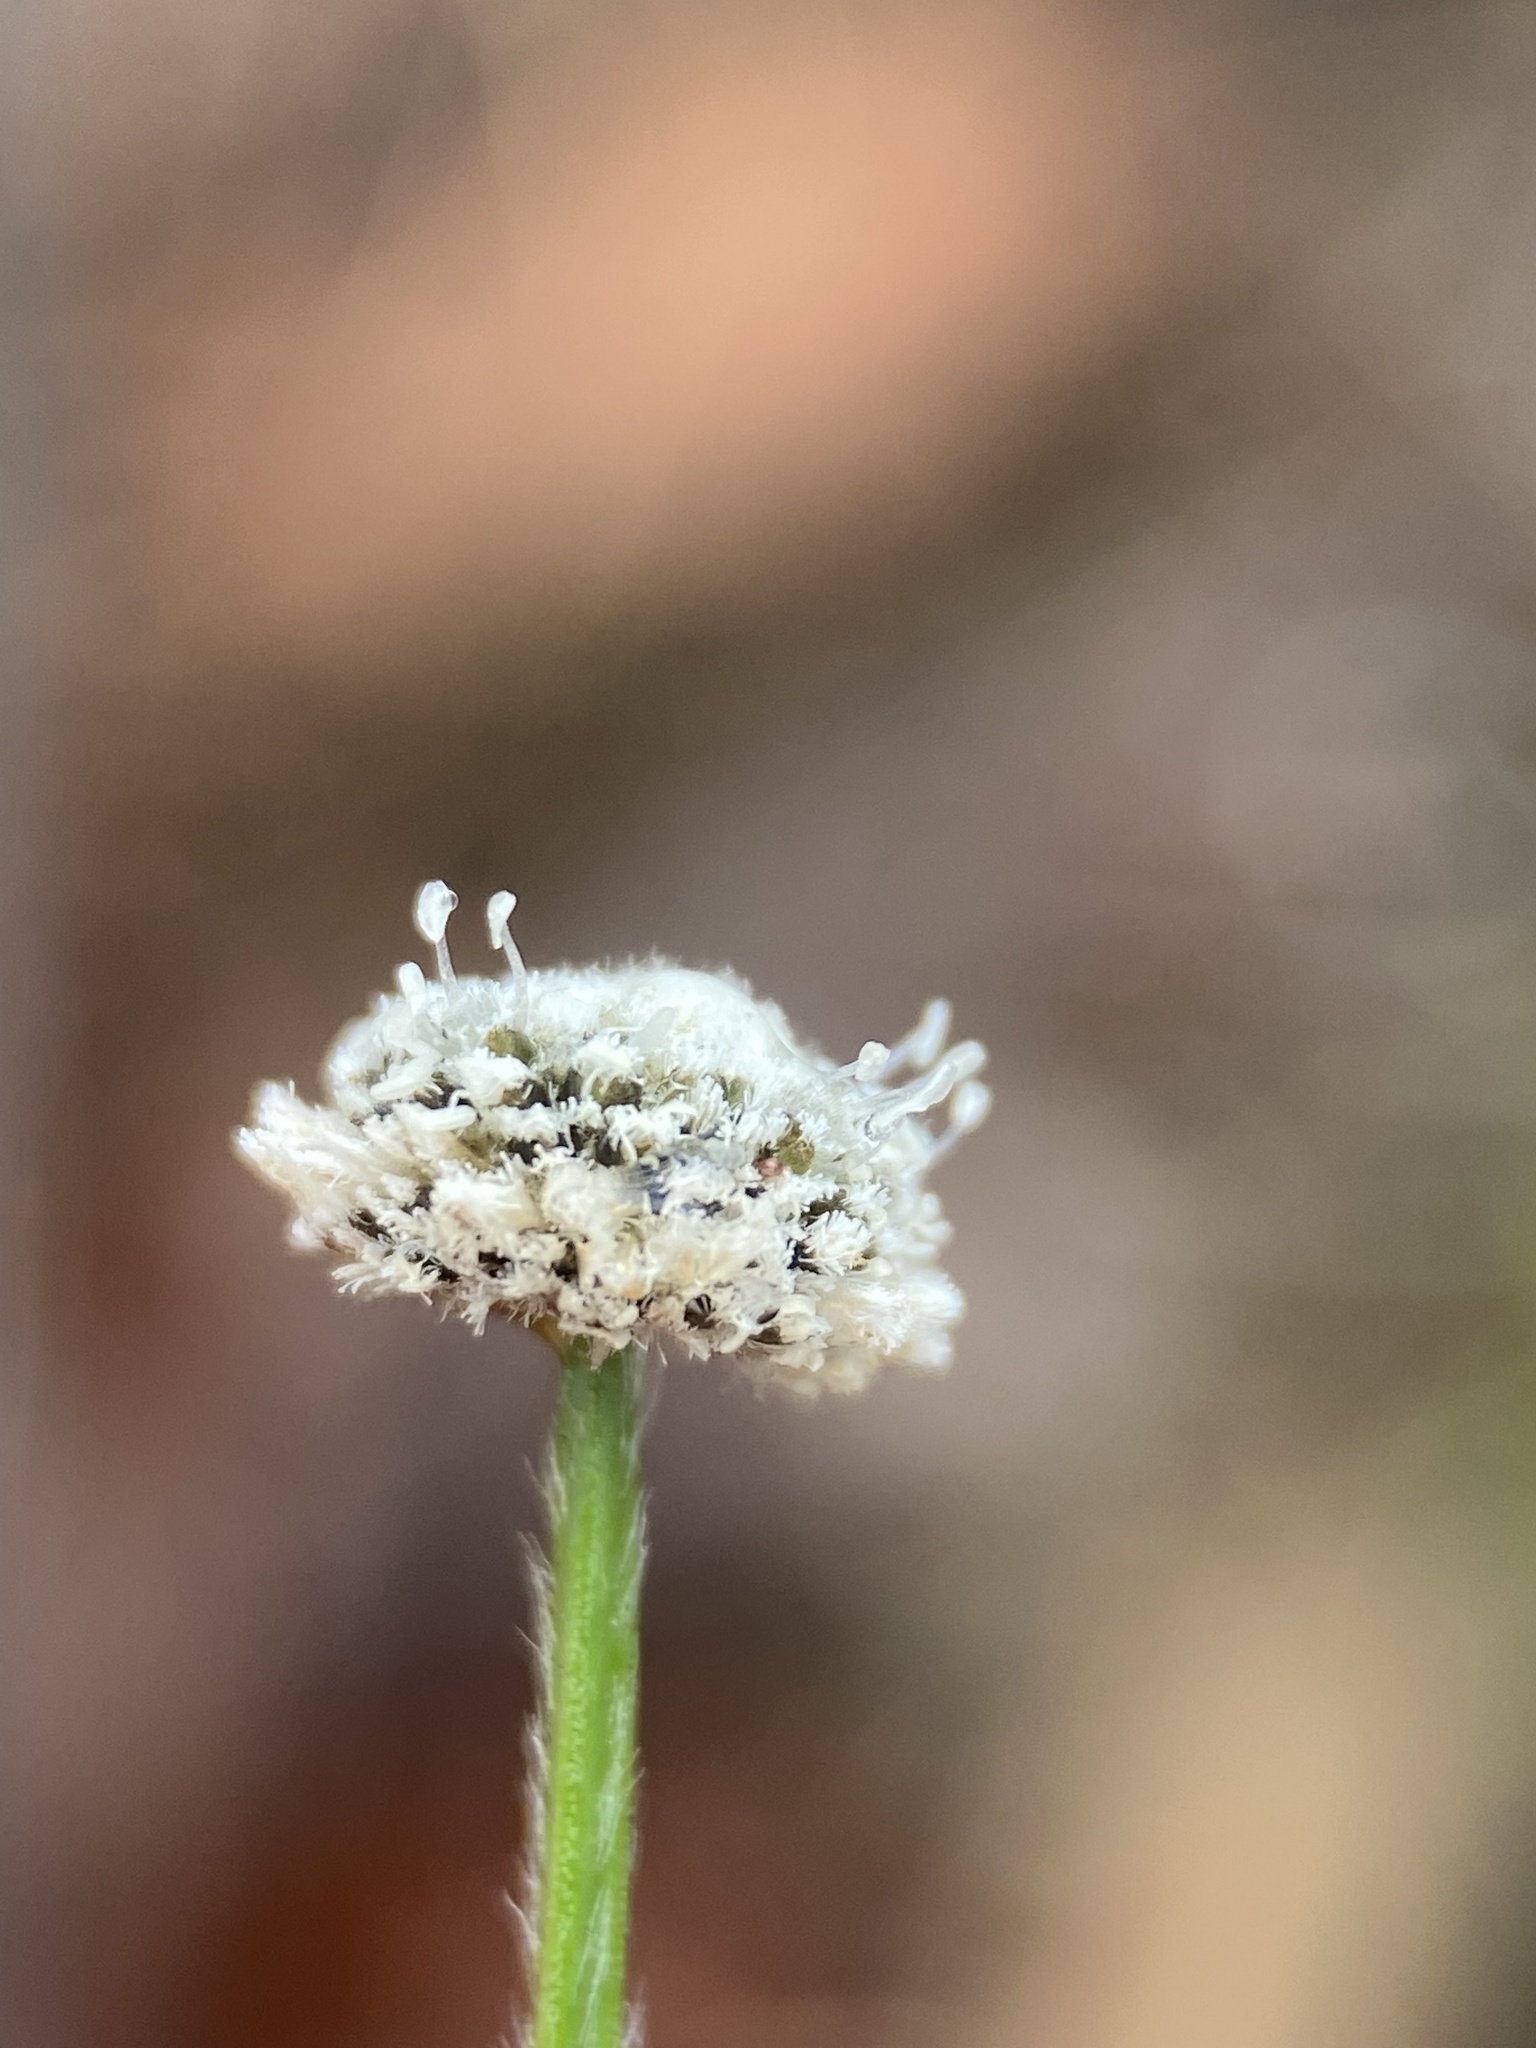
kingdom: Plantae
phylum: Tracheophyta
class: Liliopsida
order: Poales
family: Eriocaulaceae
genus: Paepalanthus
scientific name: Paepalanthus anceps
